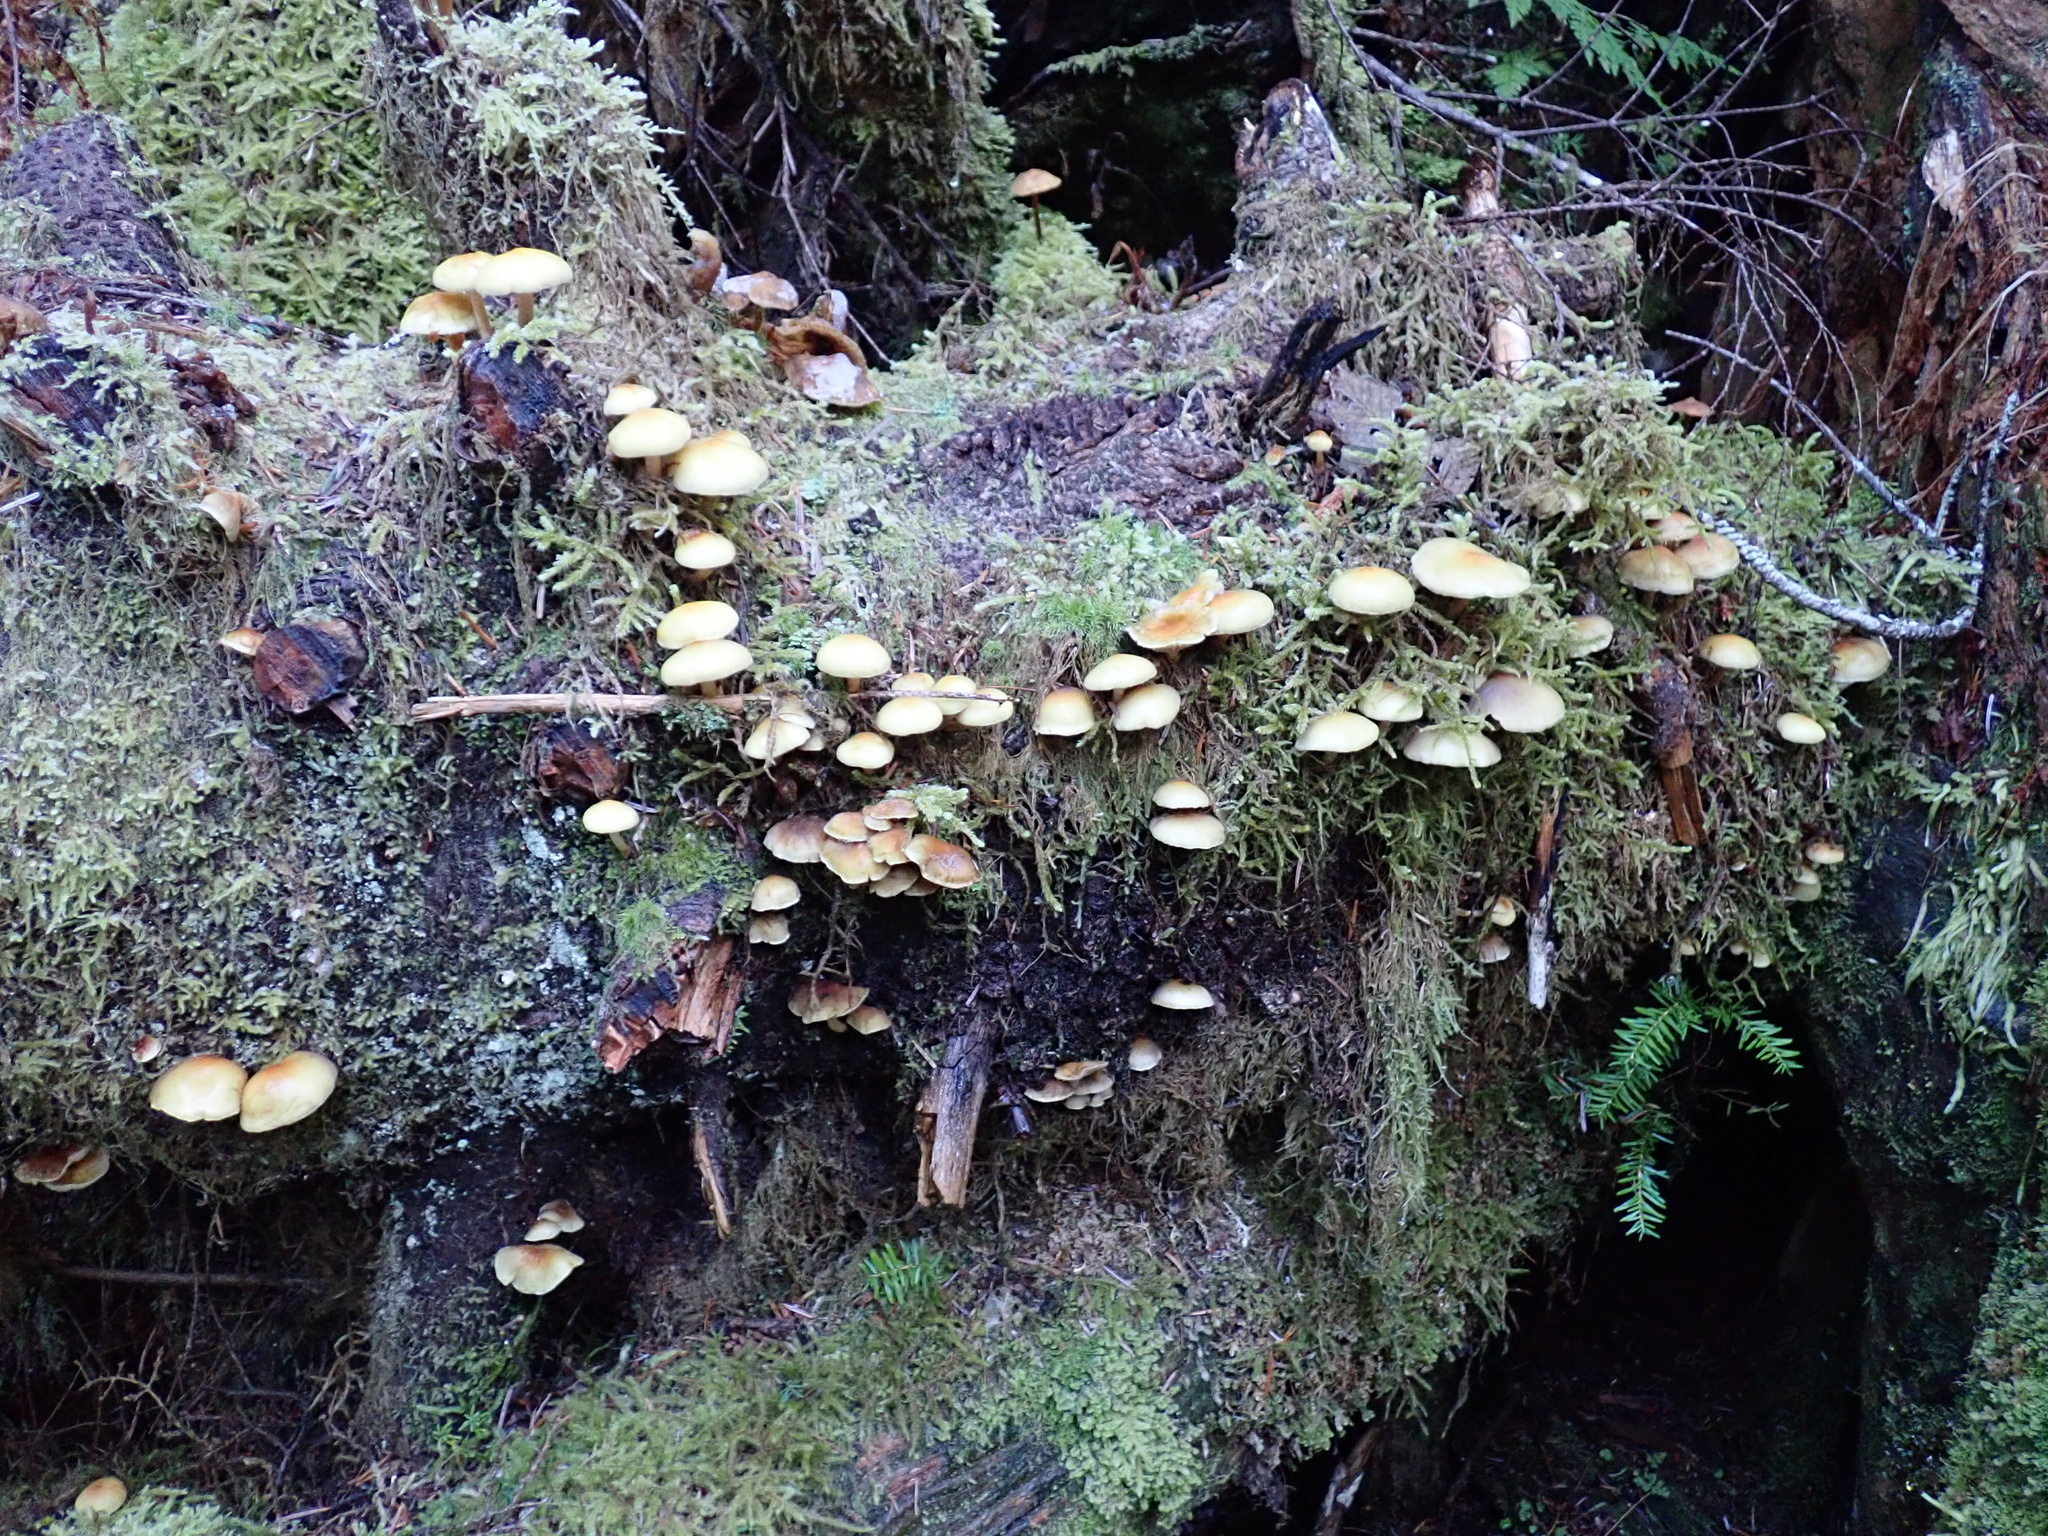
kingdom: Fungi
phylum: Basidiomycota
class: Agaricomycetes
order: Agaricales
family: Strophariaceae
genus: Hypholoma
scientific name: Hypholoma fasciculare
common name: Sulphur tuft
